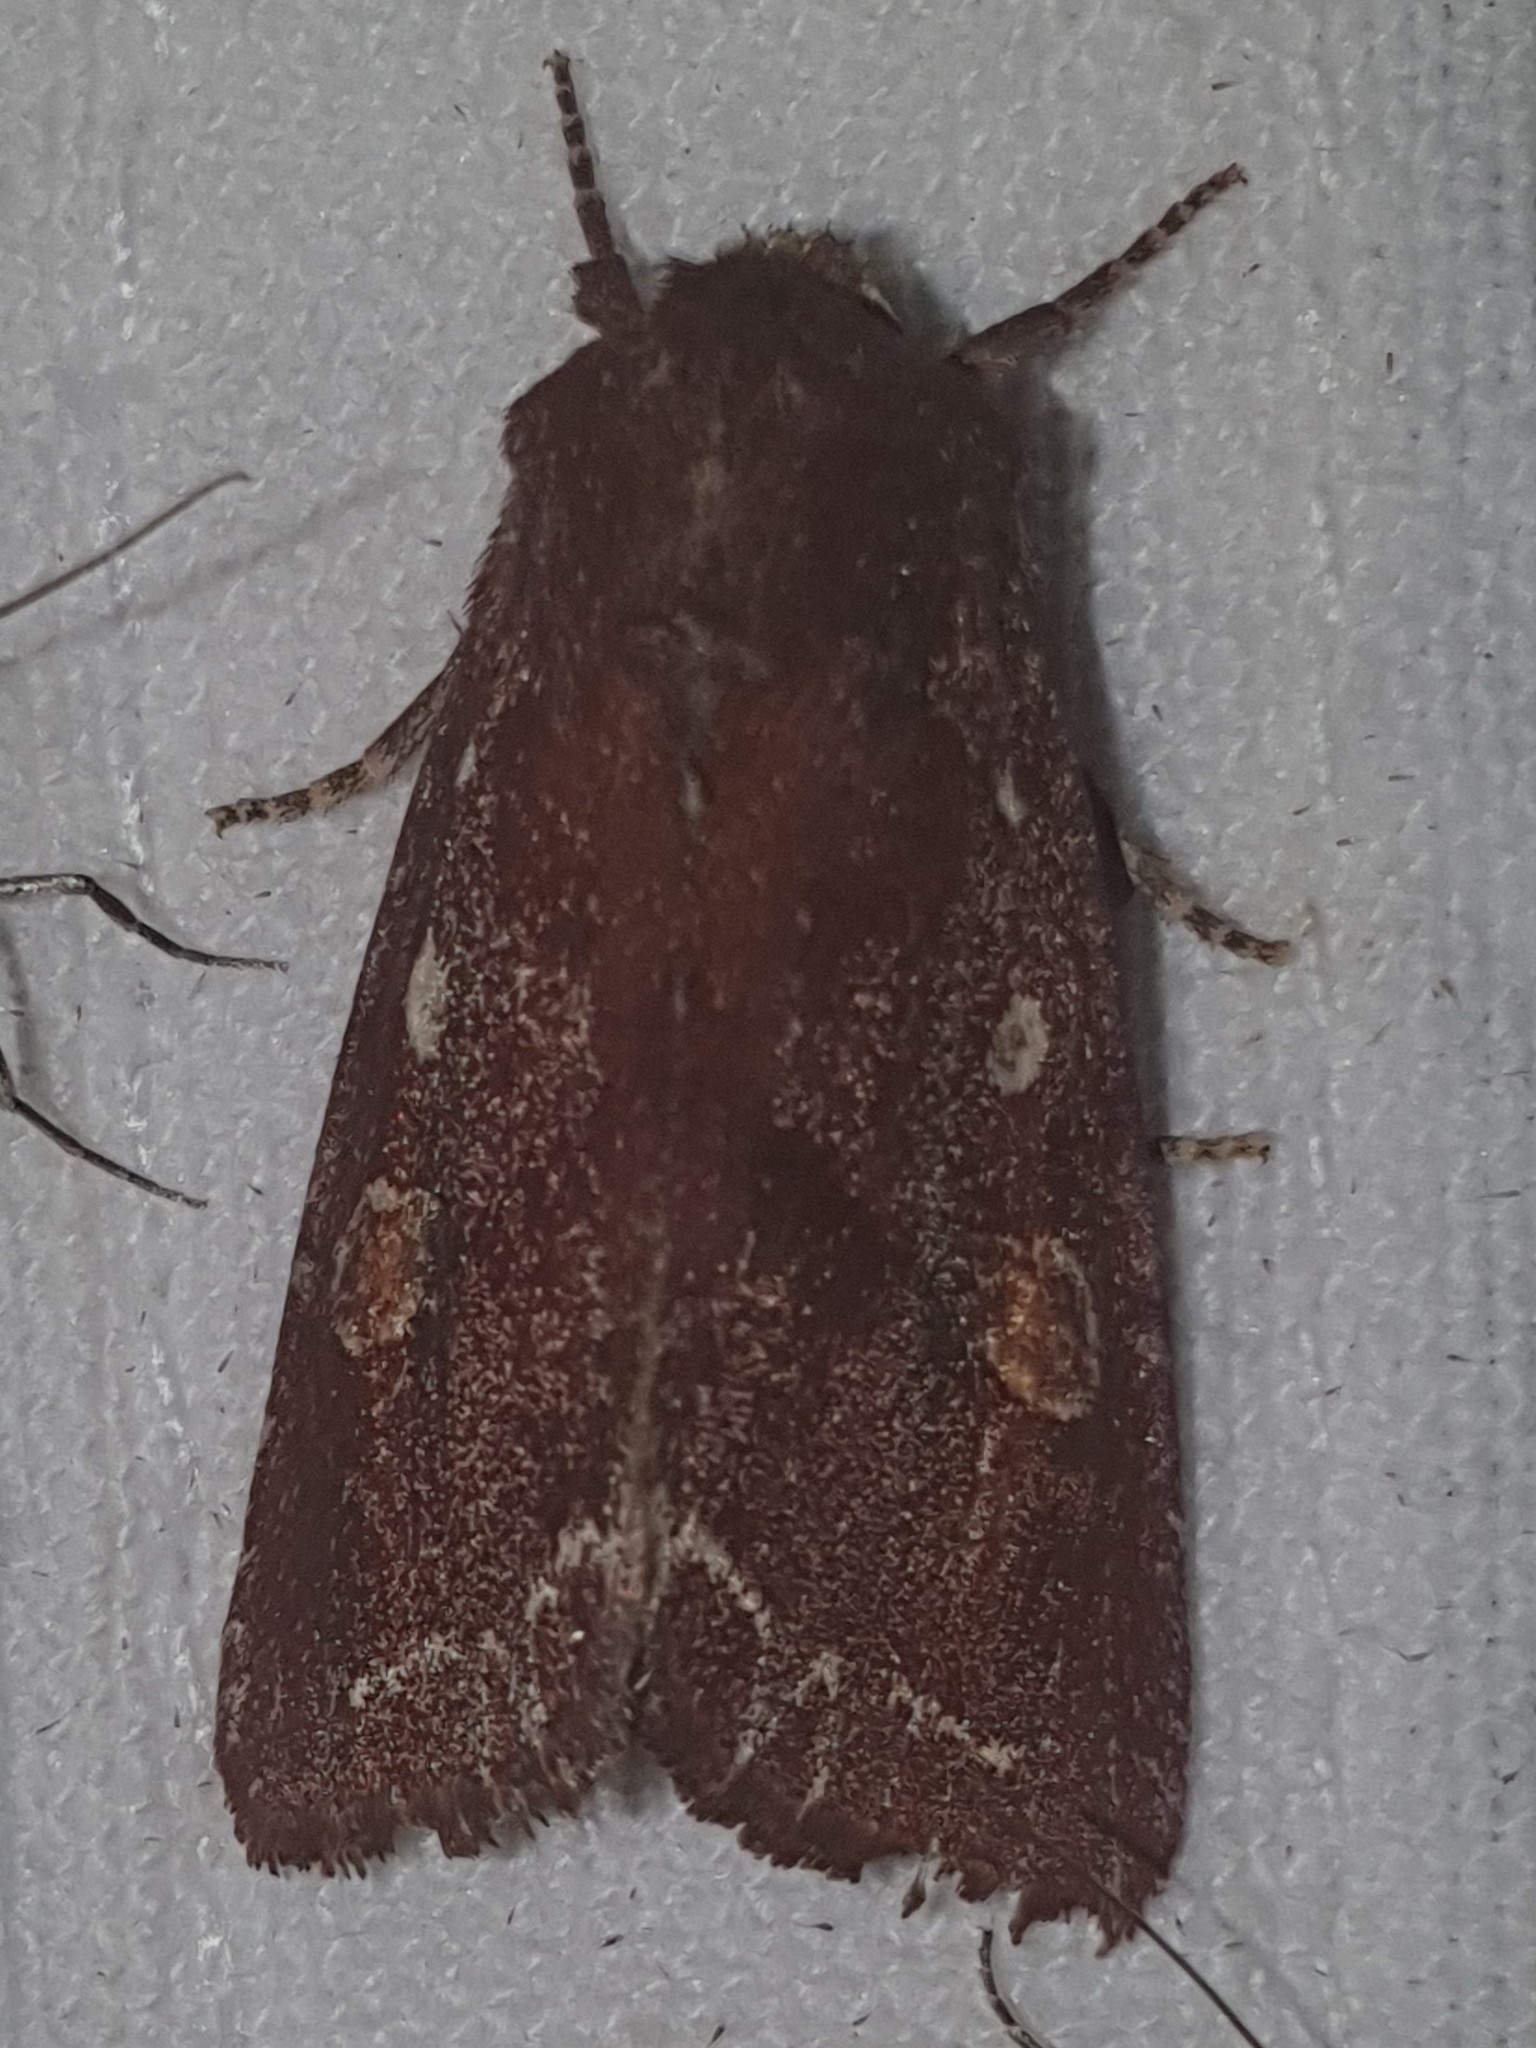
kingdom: Animalia
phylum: Arthropoda
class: Insecta
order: Lepidoptera
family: Noctuidae
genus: Lacanobia
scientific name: Lacanobia oleracea
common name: Bright-line brown-eye
